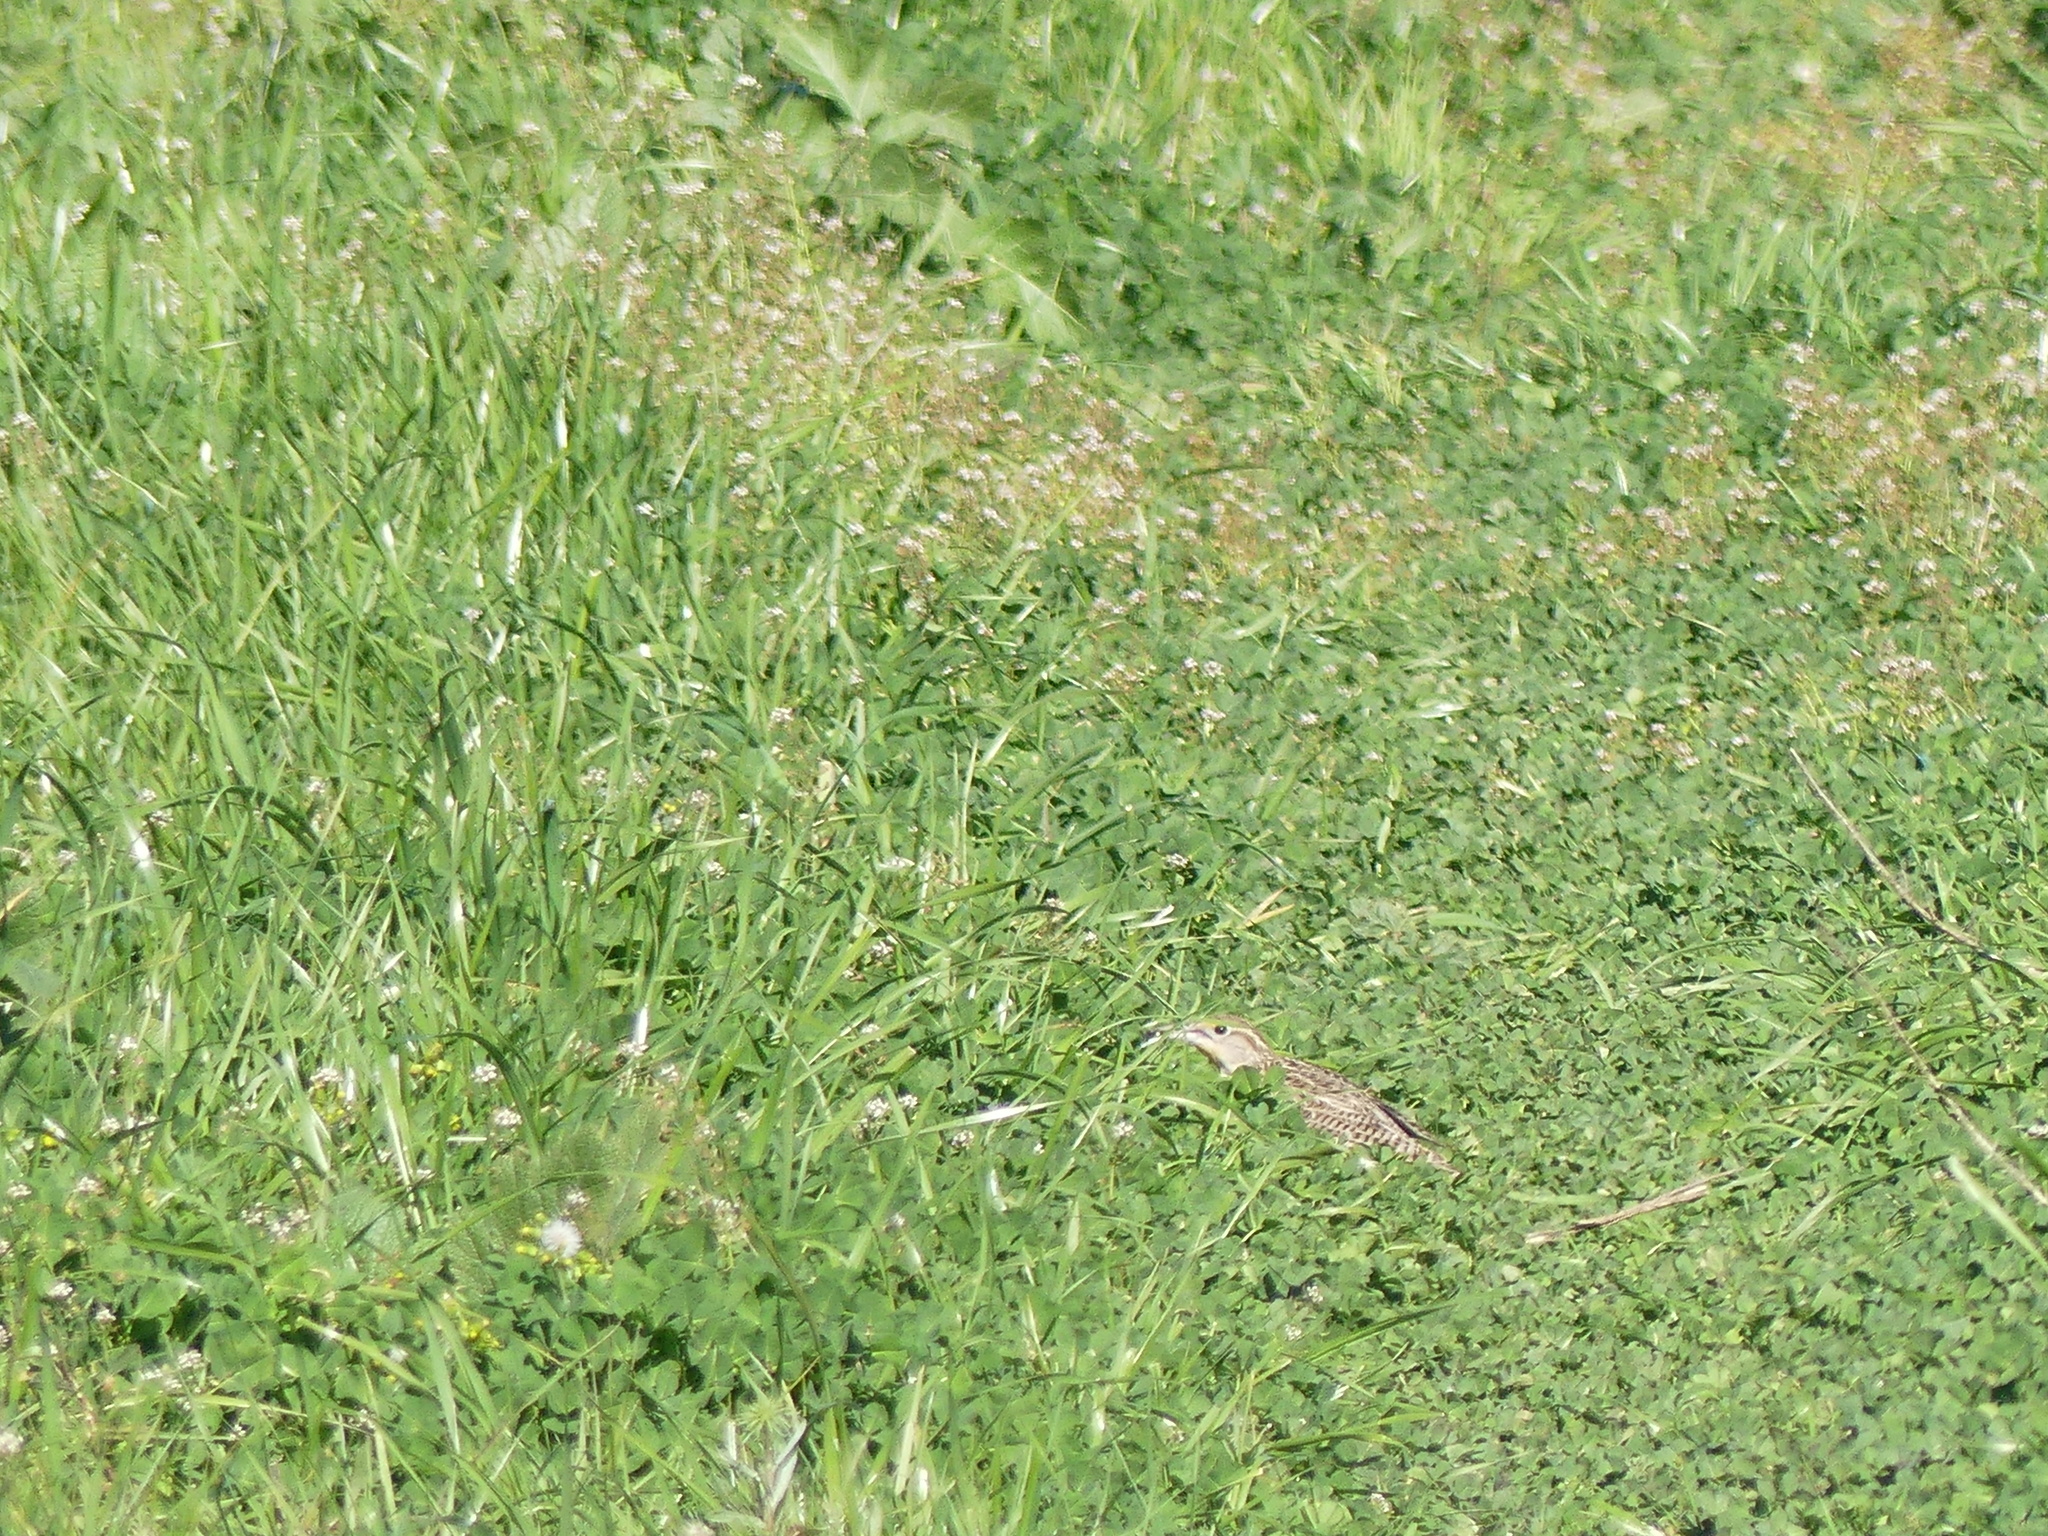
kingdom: Animalia
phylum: Chordata
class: Aves
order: Passeriformes
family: Icteridae
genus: Sturnella
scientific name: Sturnella neglecta
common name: Western meadowlark
